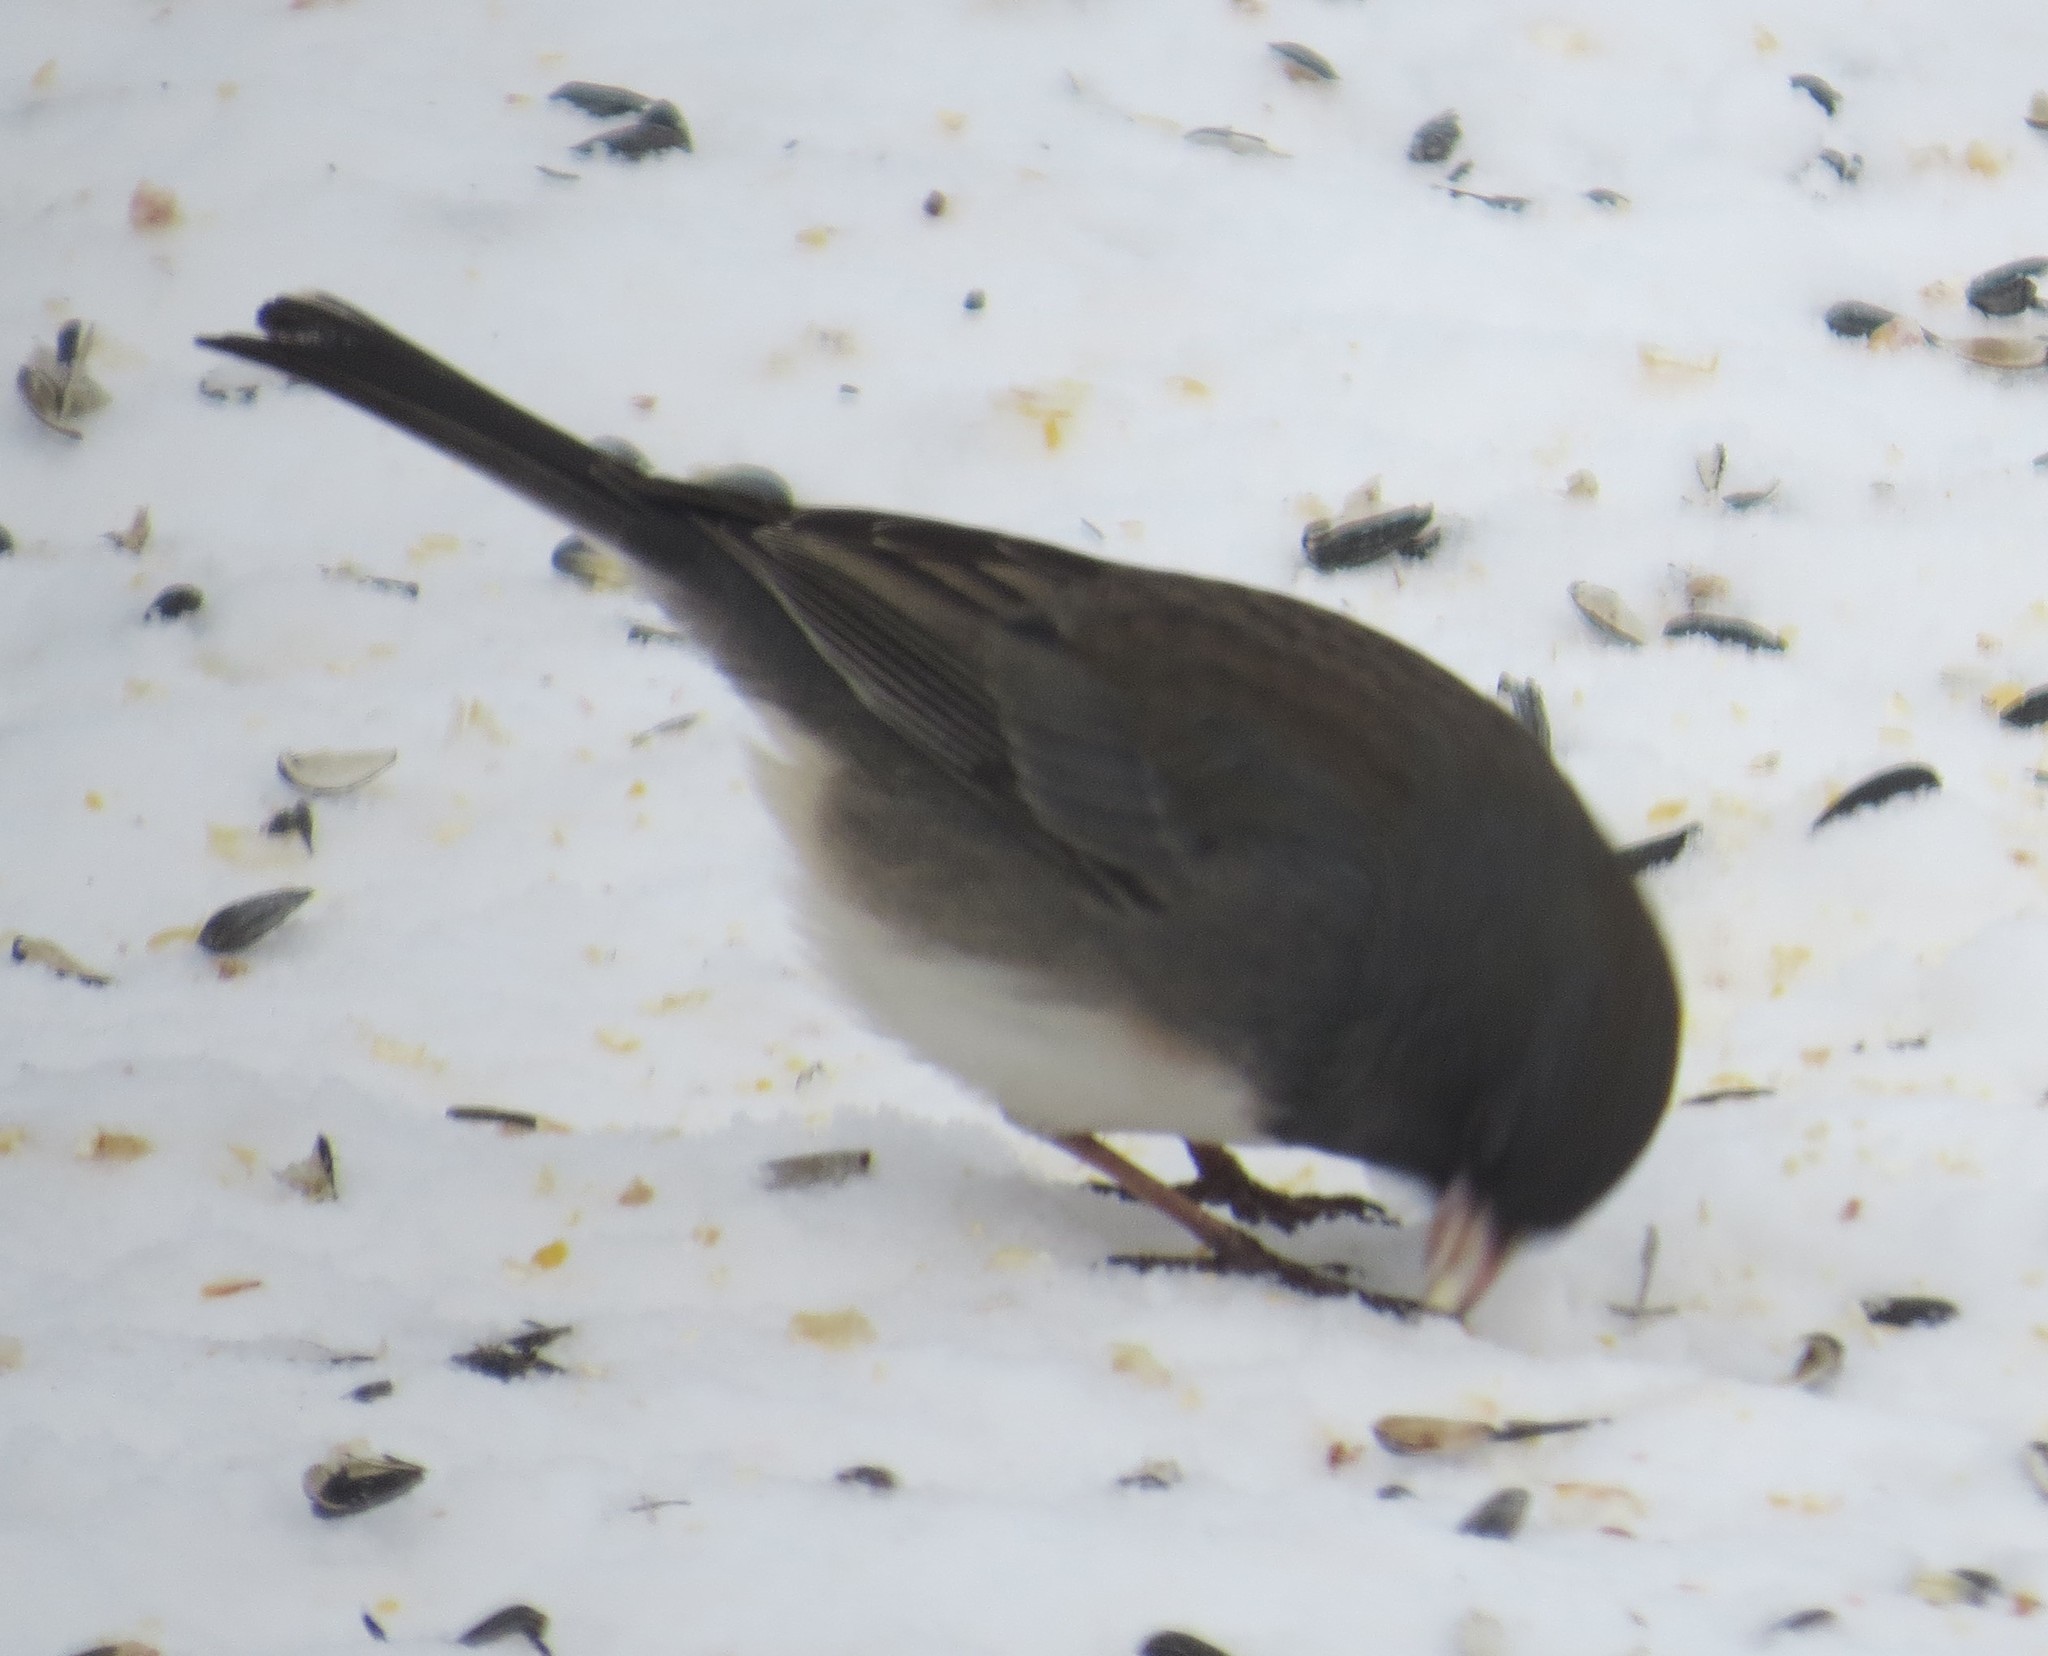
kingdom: Animalia
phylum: Chordata
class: Aves
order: Passeriformes
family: Passerellidae
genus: Junco
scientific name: Junco hyemalis
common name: Dark-eyed junco
